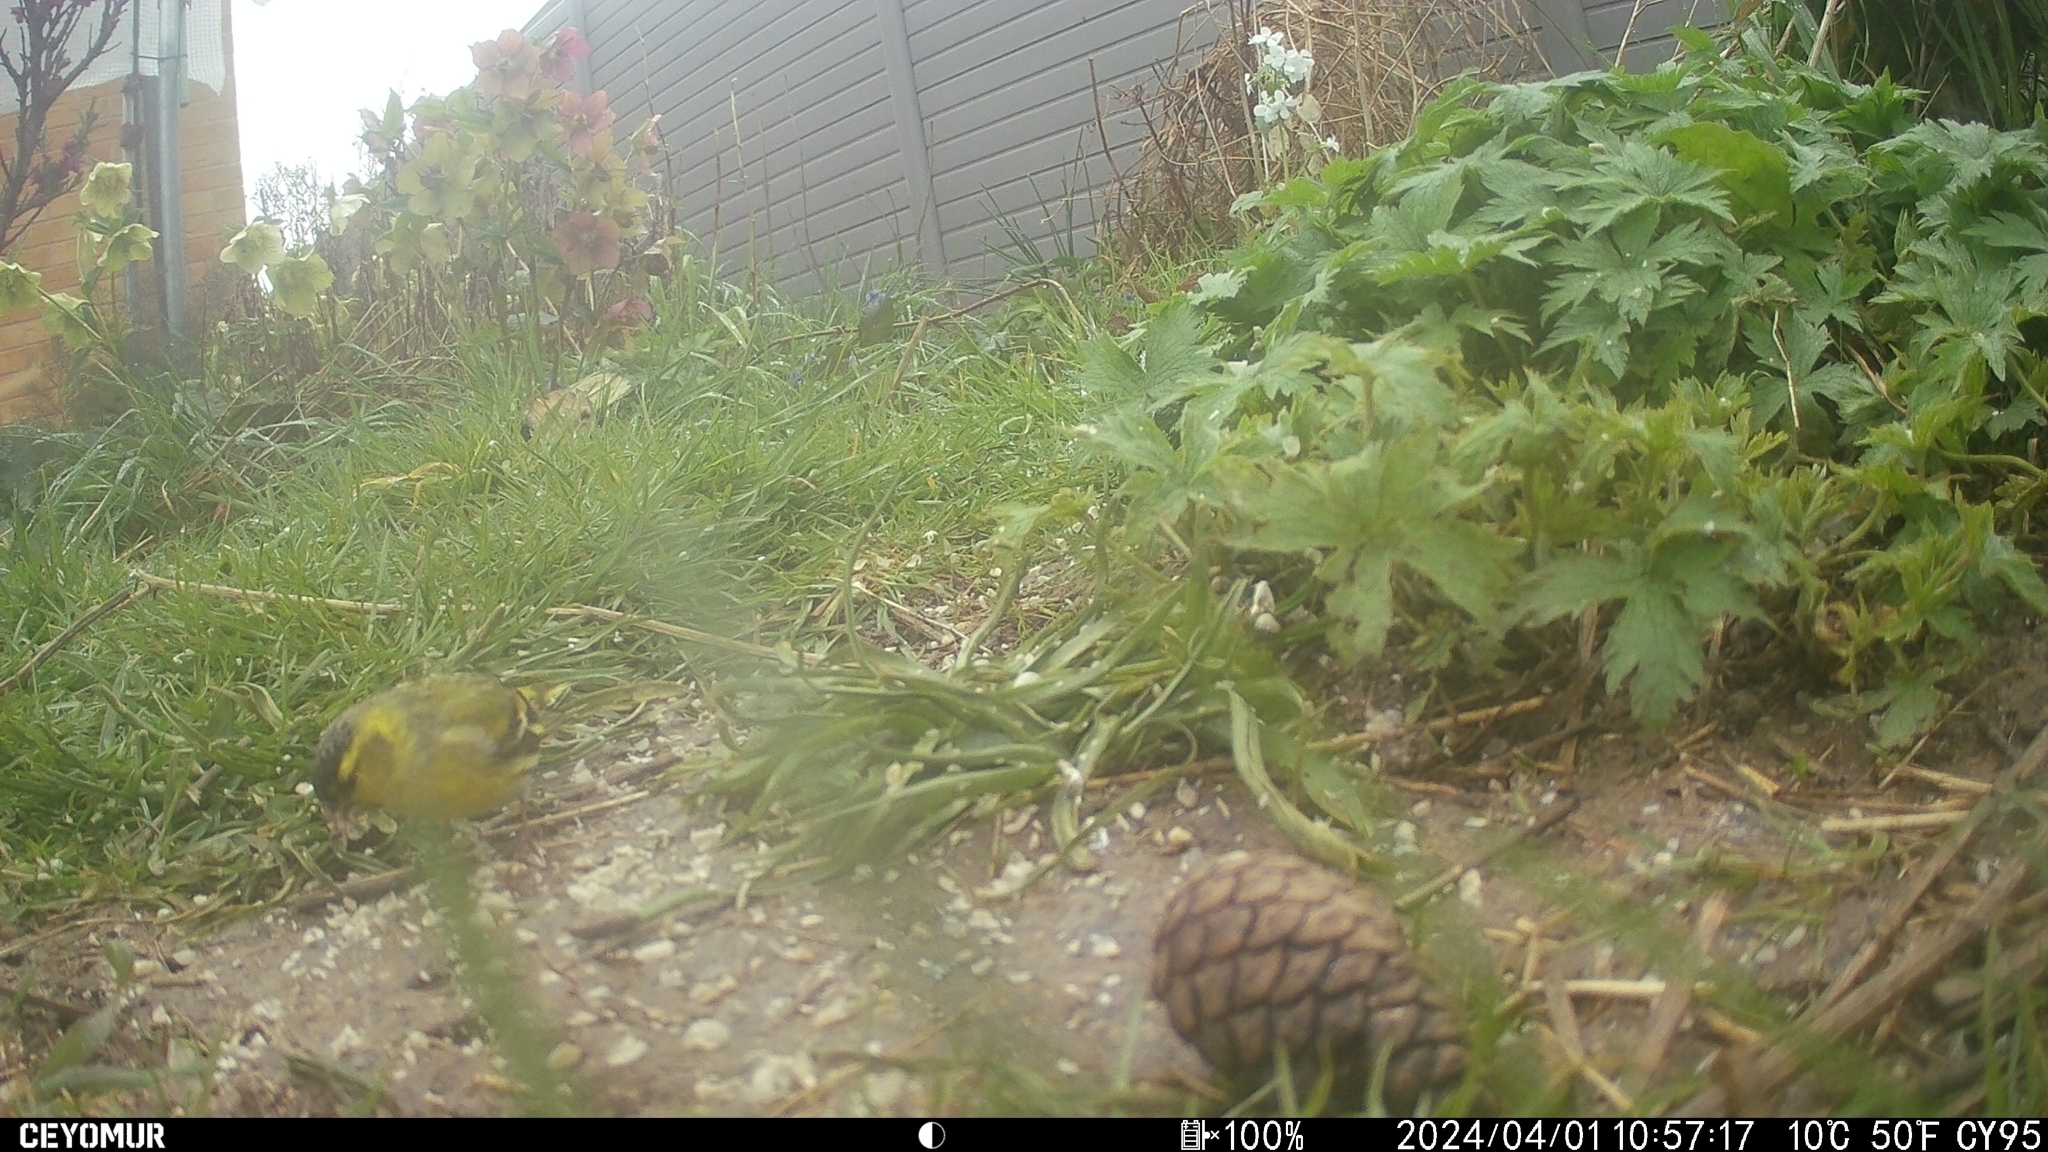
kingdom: Animalia
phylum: Chordata
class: Aves
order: Passeriformes
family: Fringillidae
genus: Spinus
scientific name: Spinus spinus
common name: Eurasian siskin
